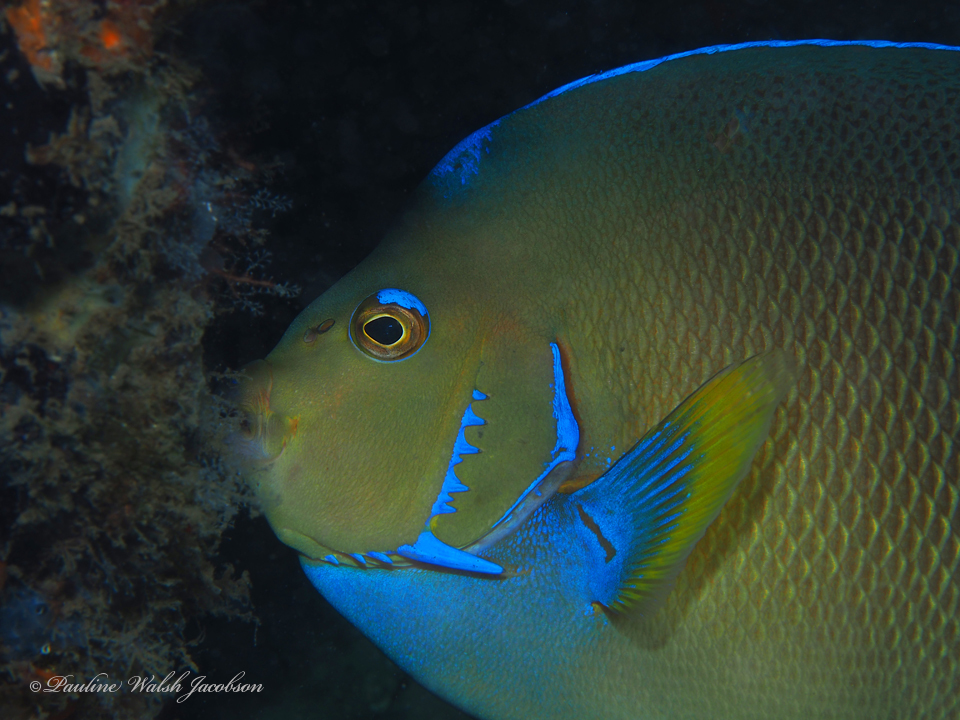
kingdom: Animalia
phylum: Chordata
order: Perciformes
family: Pomacanthidae
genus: Holacanthus
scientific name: Holacanthus ciliaris
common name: Queen angelfish
